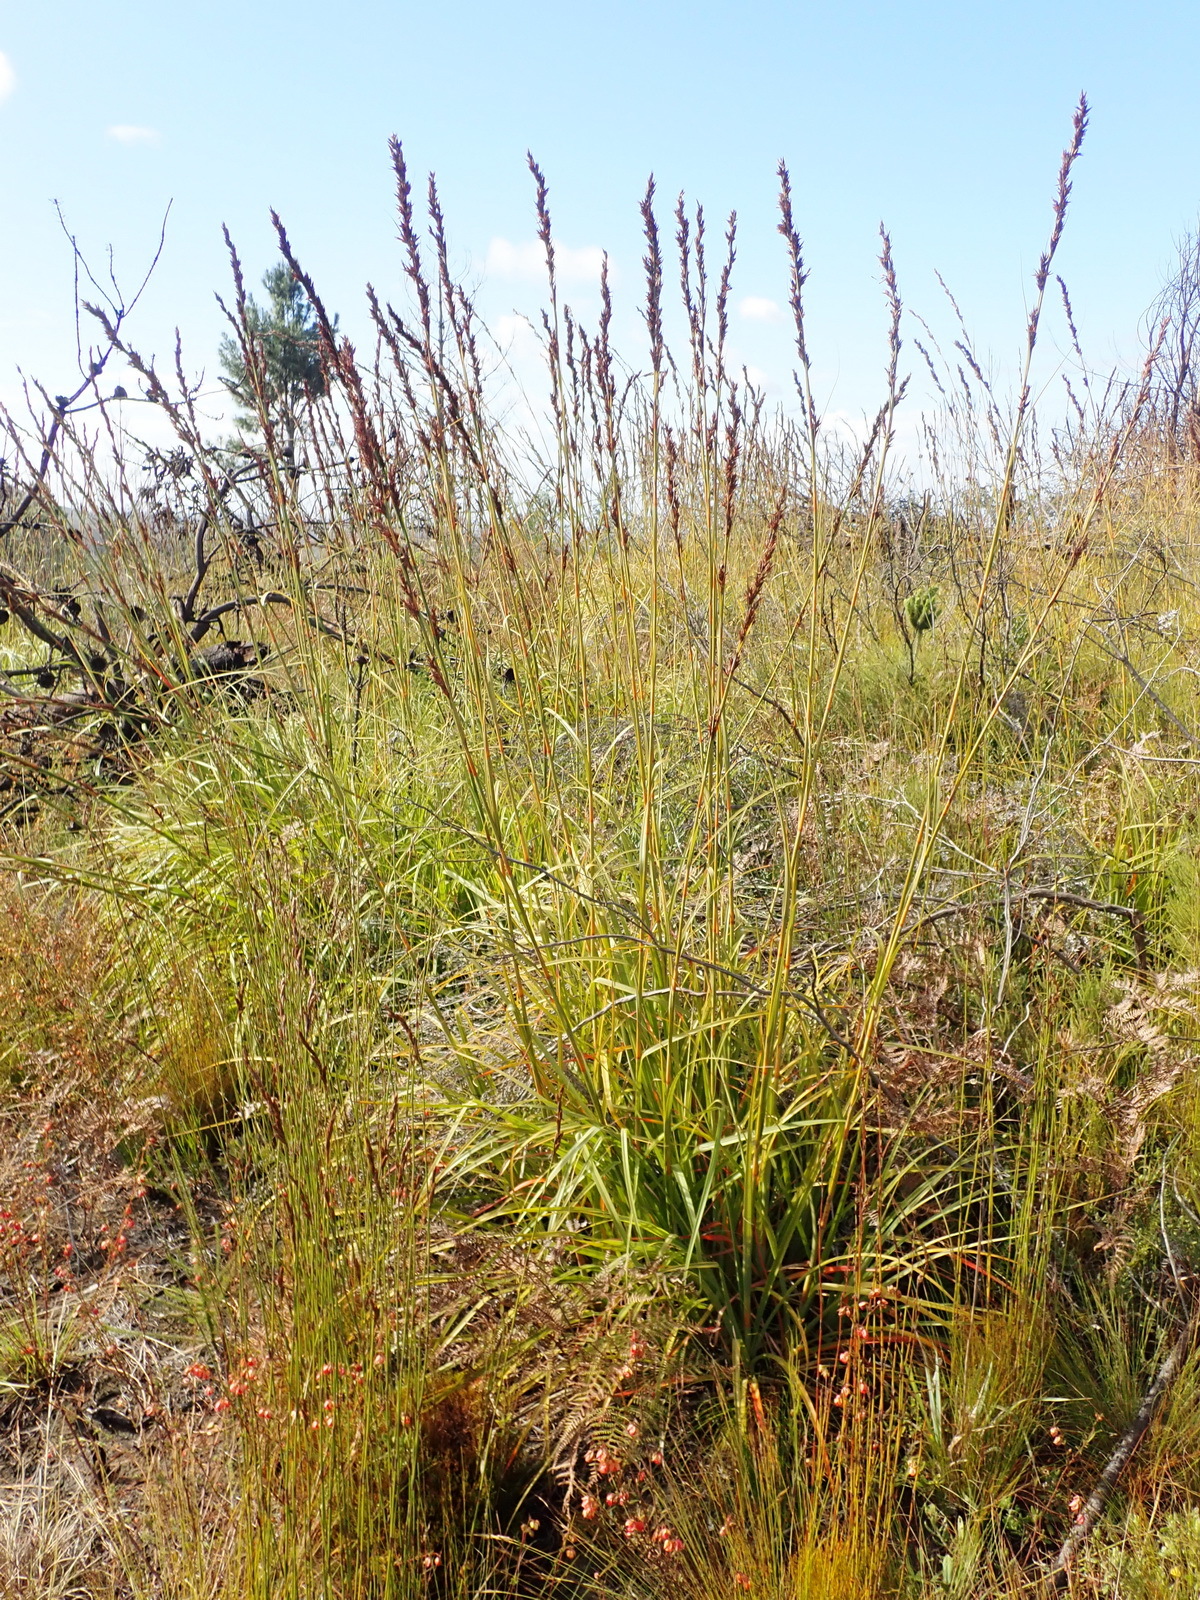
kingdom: Plantae
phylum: Tracheophyta
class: Liliopsida
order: Poales
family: Cyperaceae
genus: Tetraria
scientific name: Tetraria bromoides
